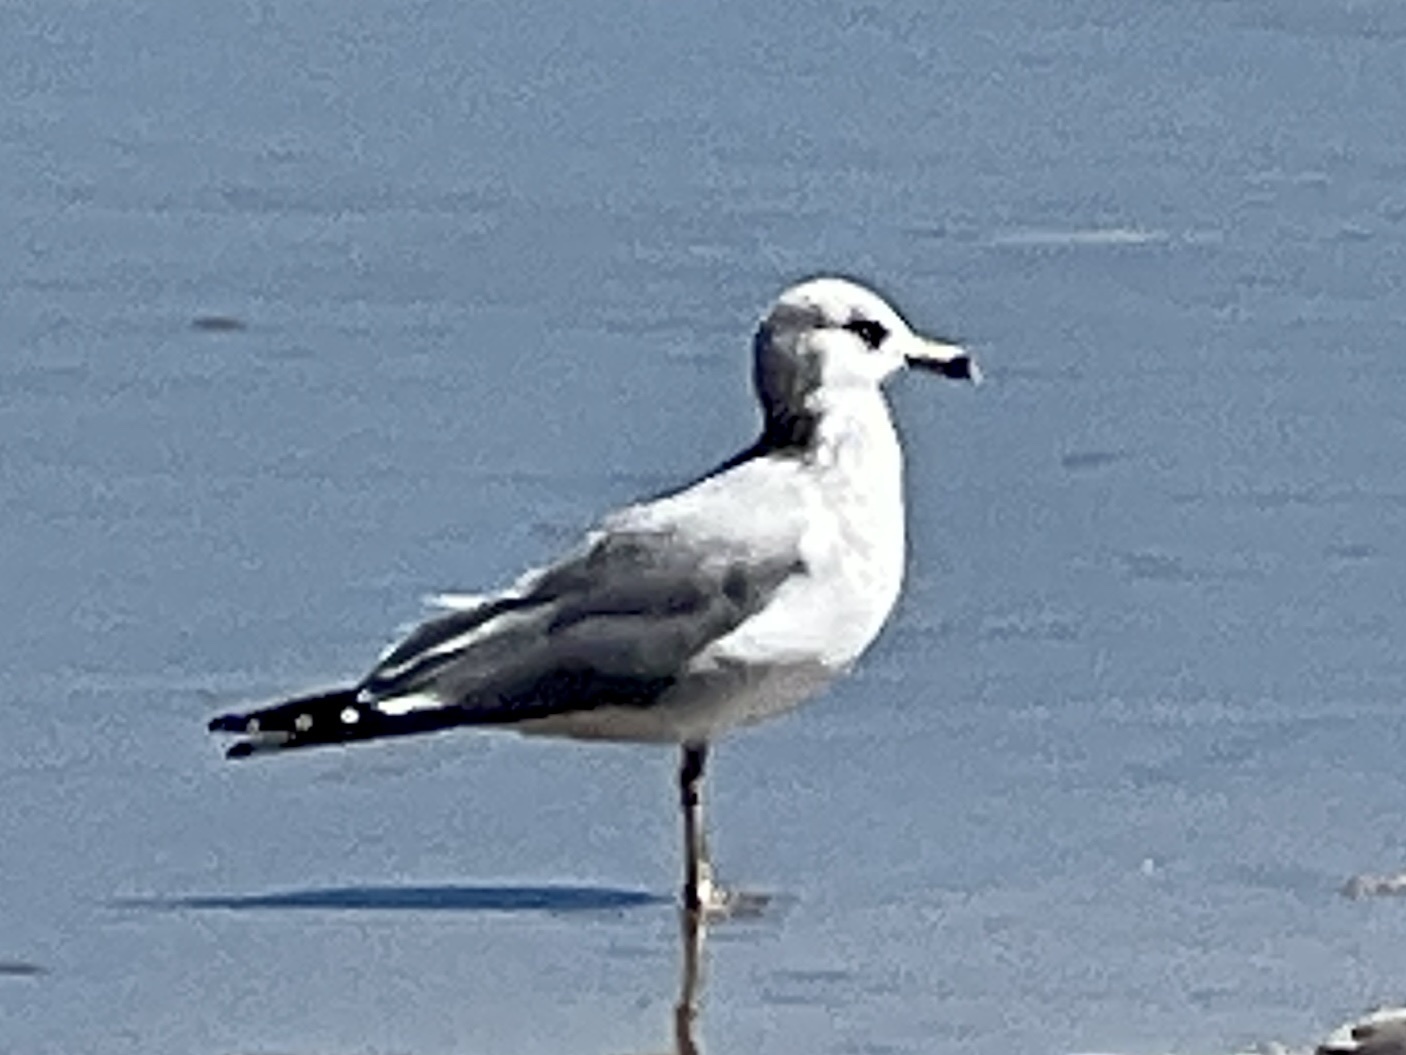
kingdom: Animalia
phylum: Chordata
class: Aves
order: Charadriiformes
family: Laridae
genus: Larus
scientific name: Larus delawarensis
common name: Ring-billed gull
